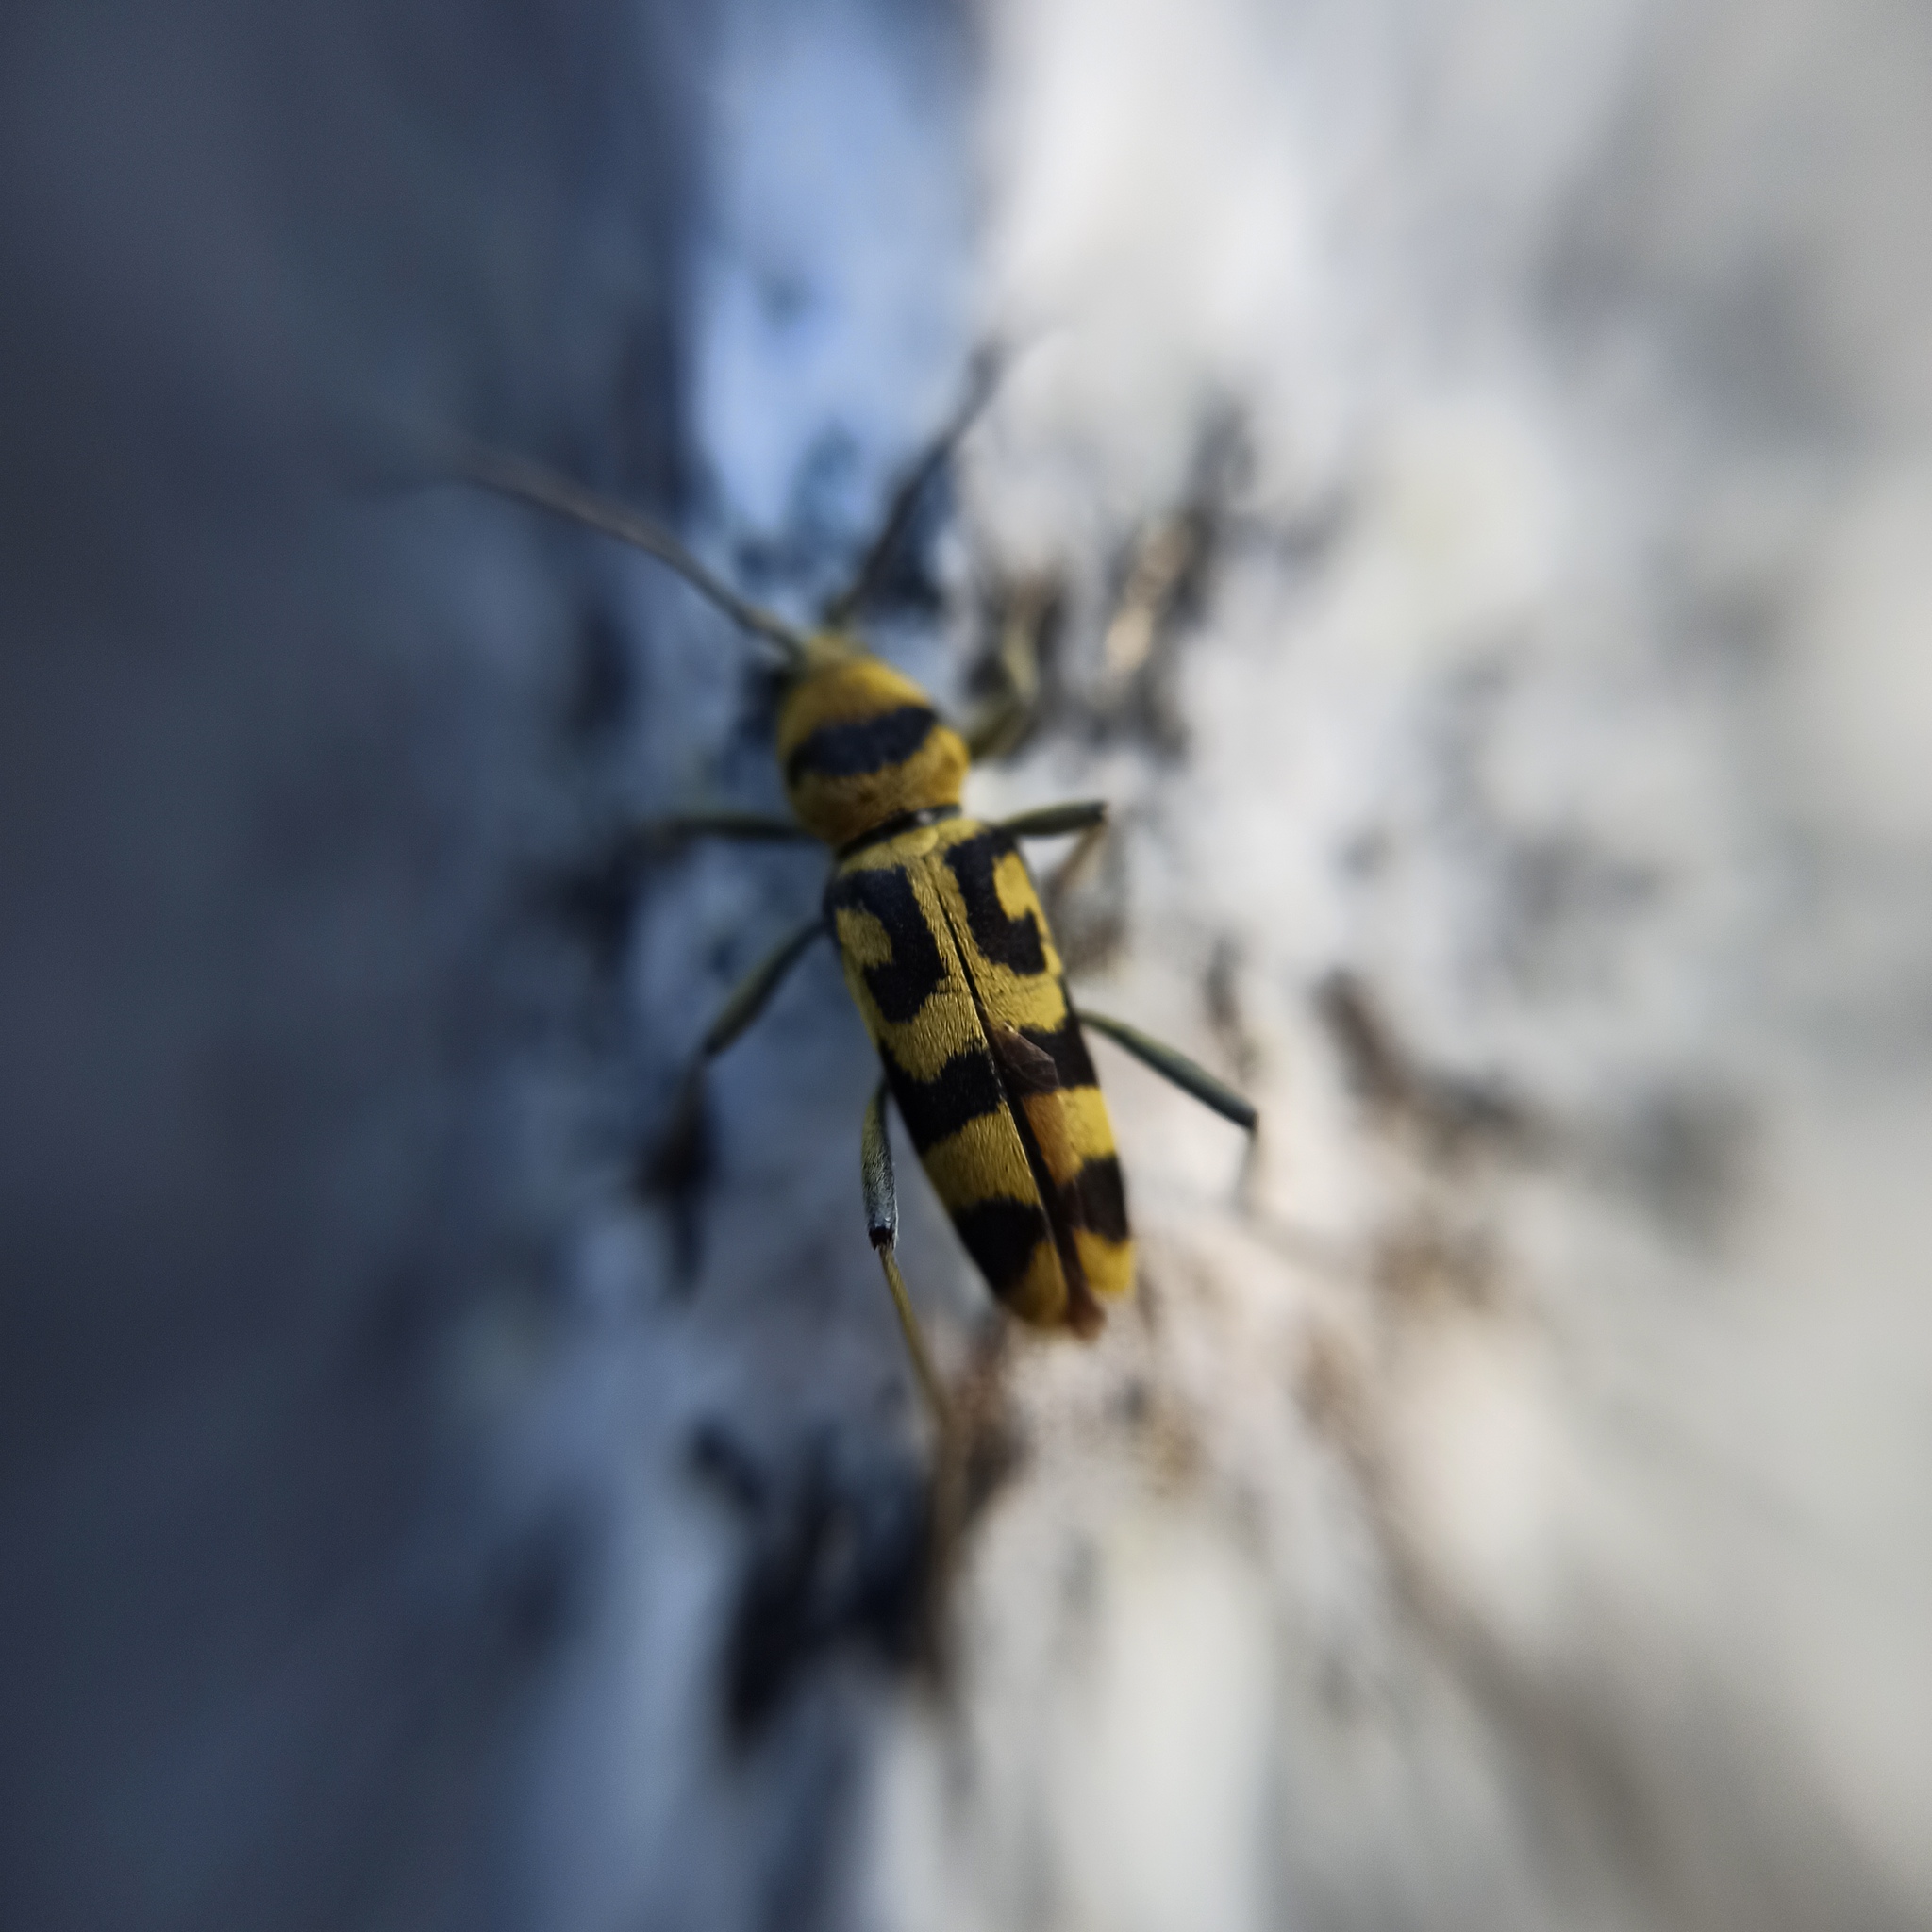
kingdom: Animalia
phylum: Arthropoda
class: Insecta
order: Coleoptera
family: Cerambycidae
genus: Chlorophorus
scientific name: Chlorophorus varius
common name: Grape wood borer
